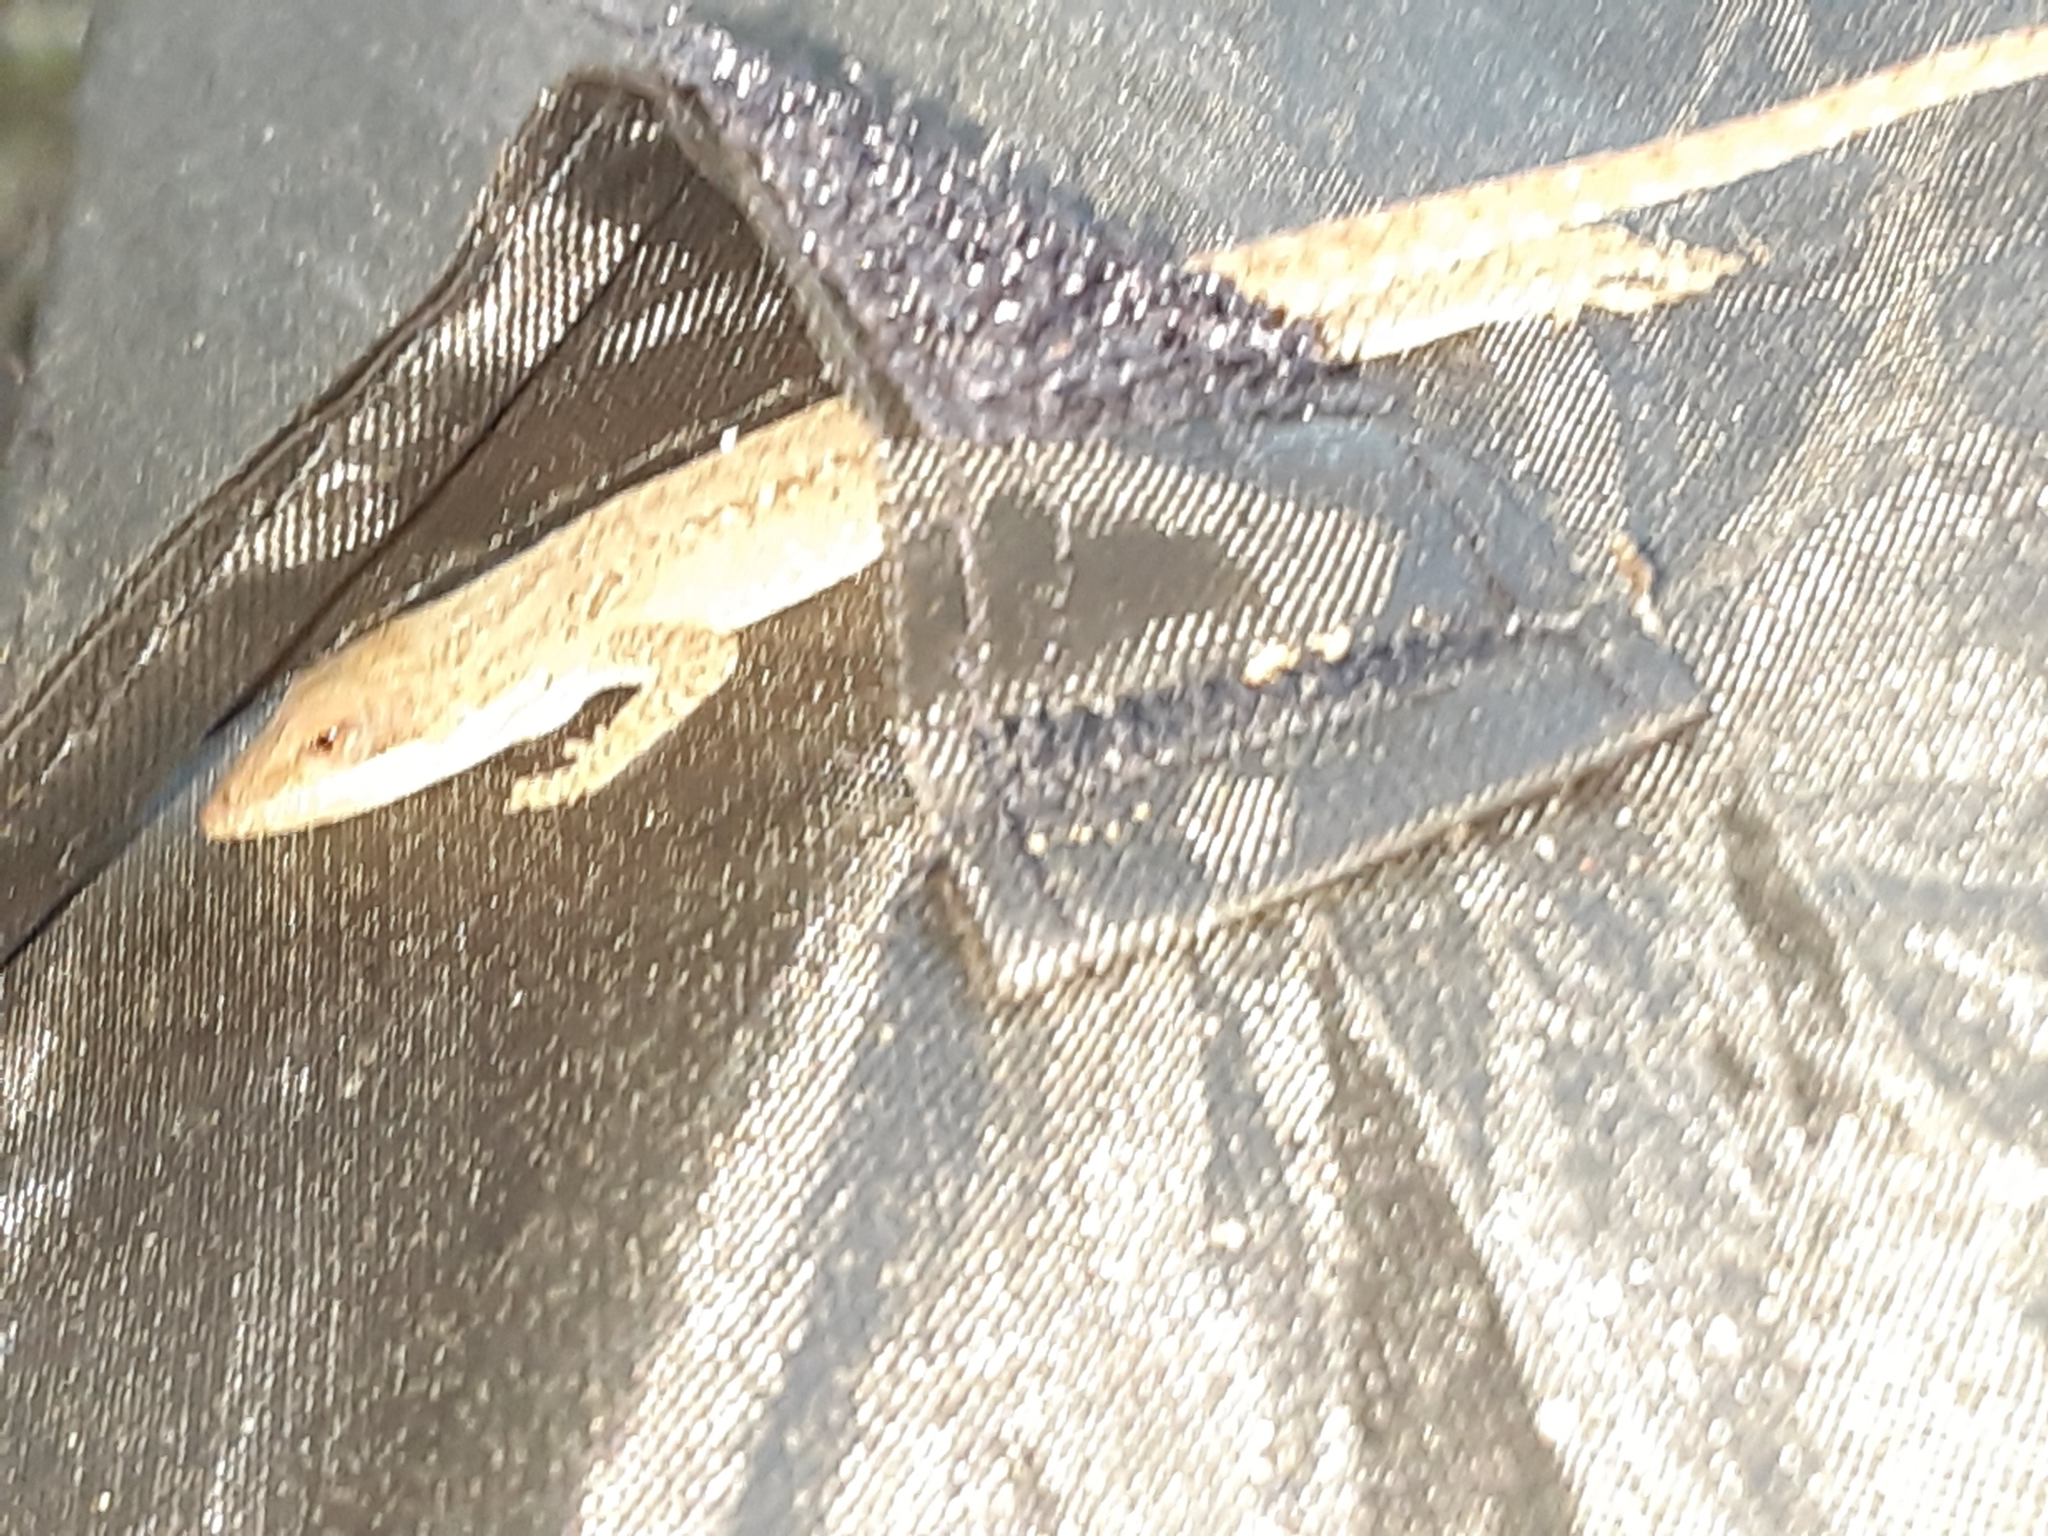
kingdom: Animalia
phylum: Chordata
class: Squamata
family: Dactyloidae
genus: Anolis
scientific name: Anolis carolinensis
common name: Green anole
